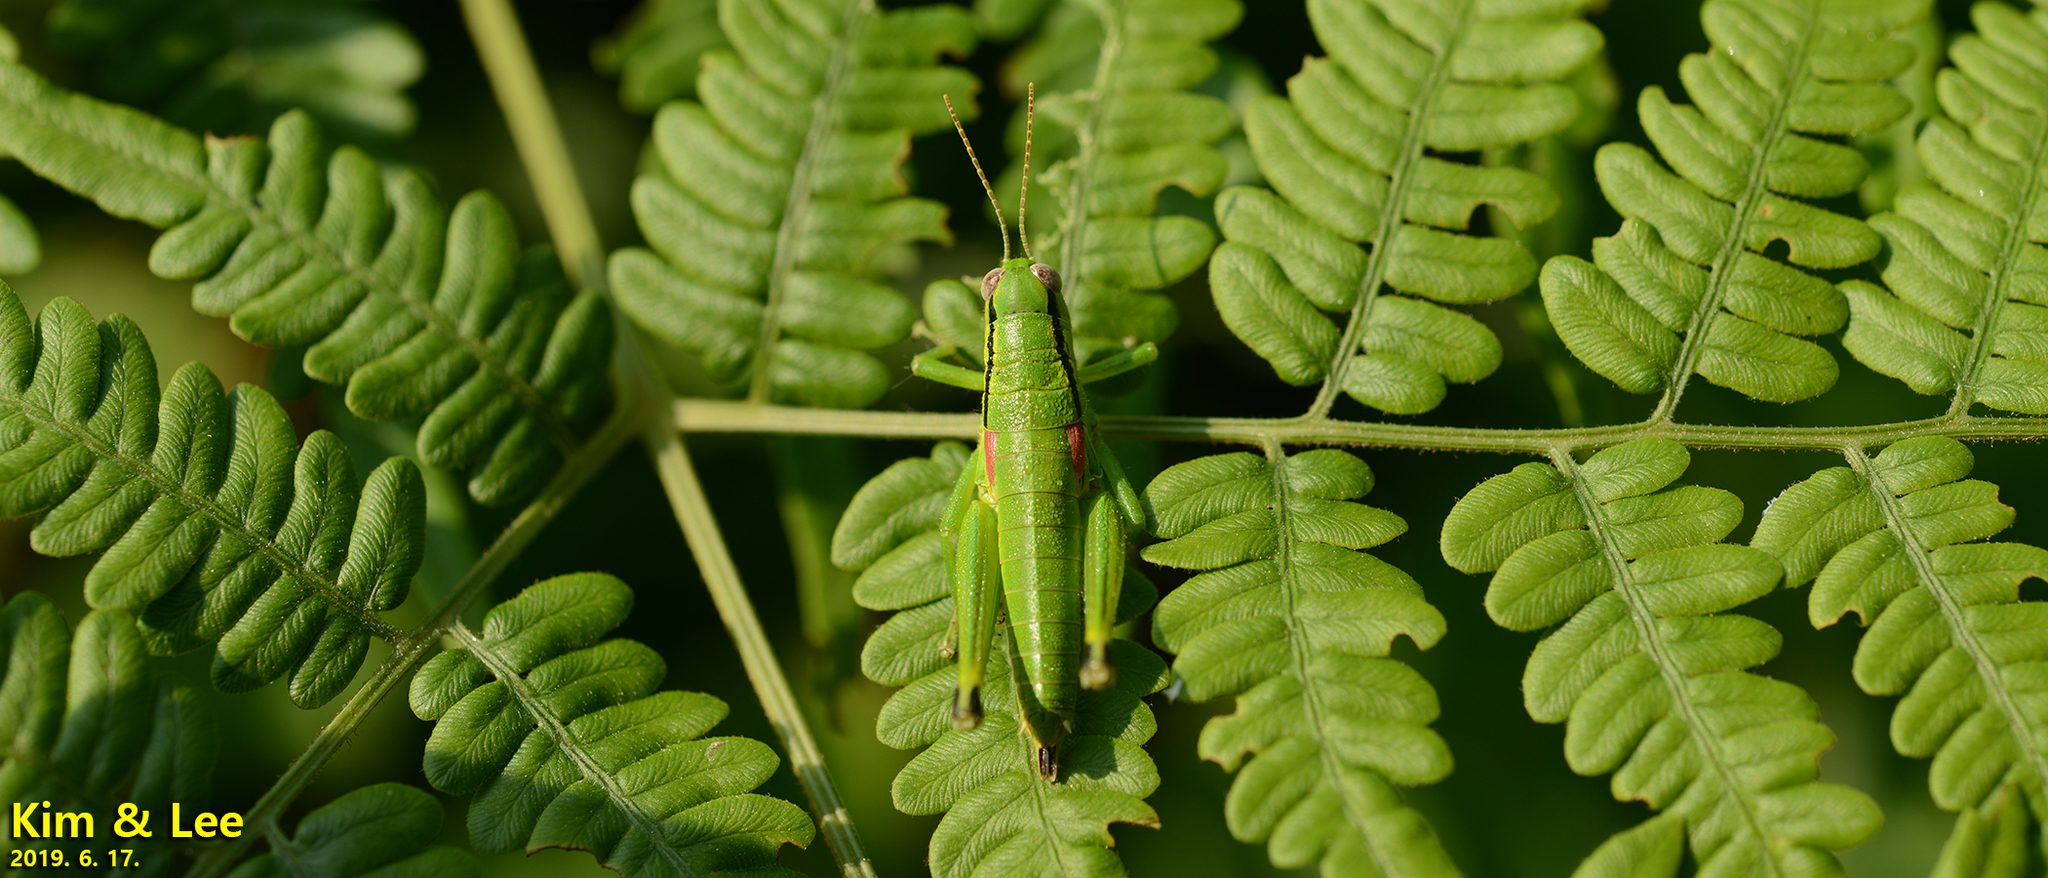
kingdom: Animalia
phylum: Arthropoda
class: Insecta
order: Orthoptera
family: Acrididae
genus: Anapodisma
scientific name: Anapodisma miramae
